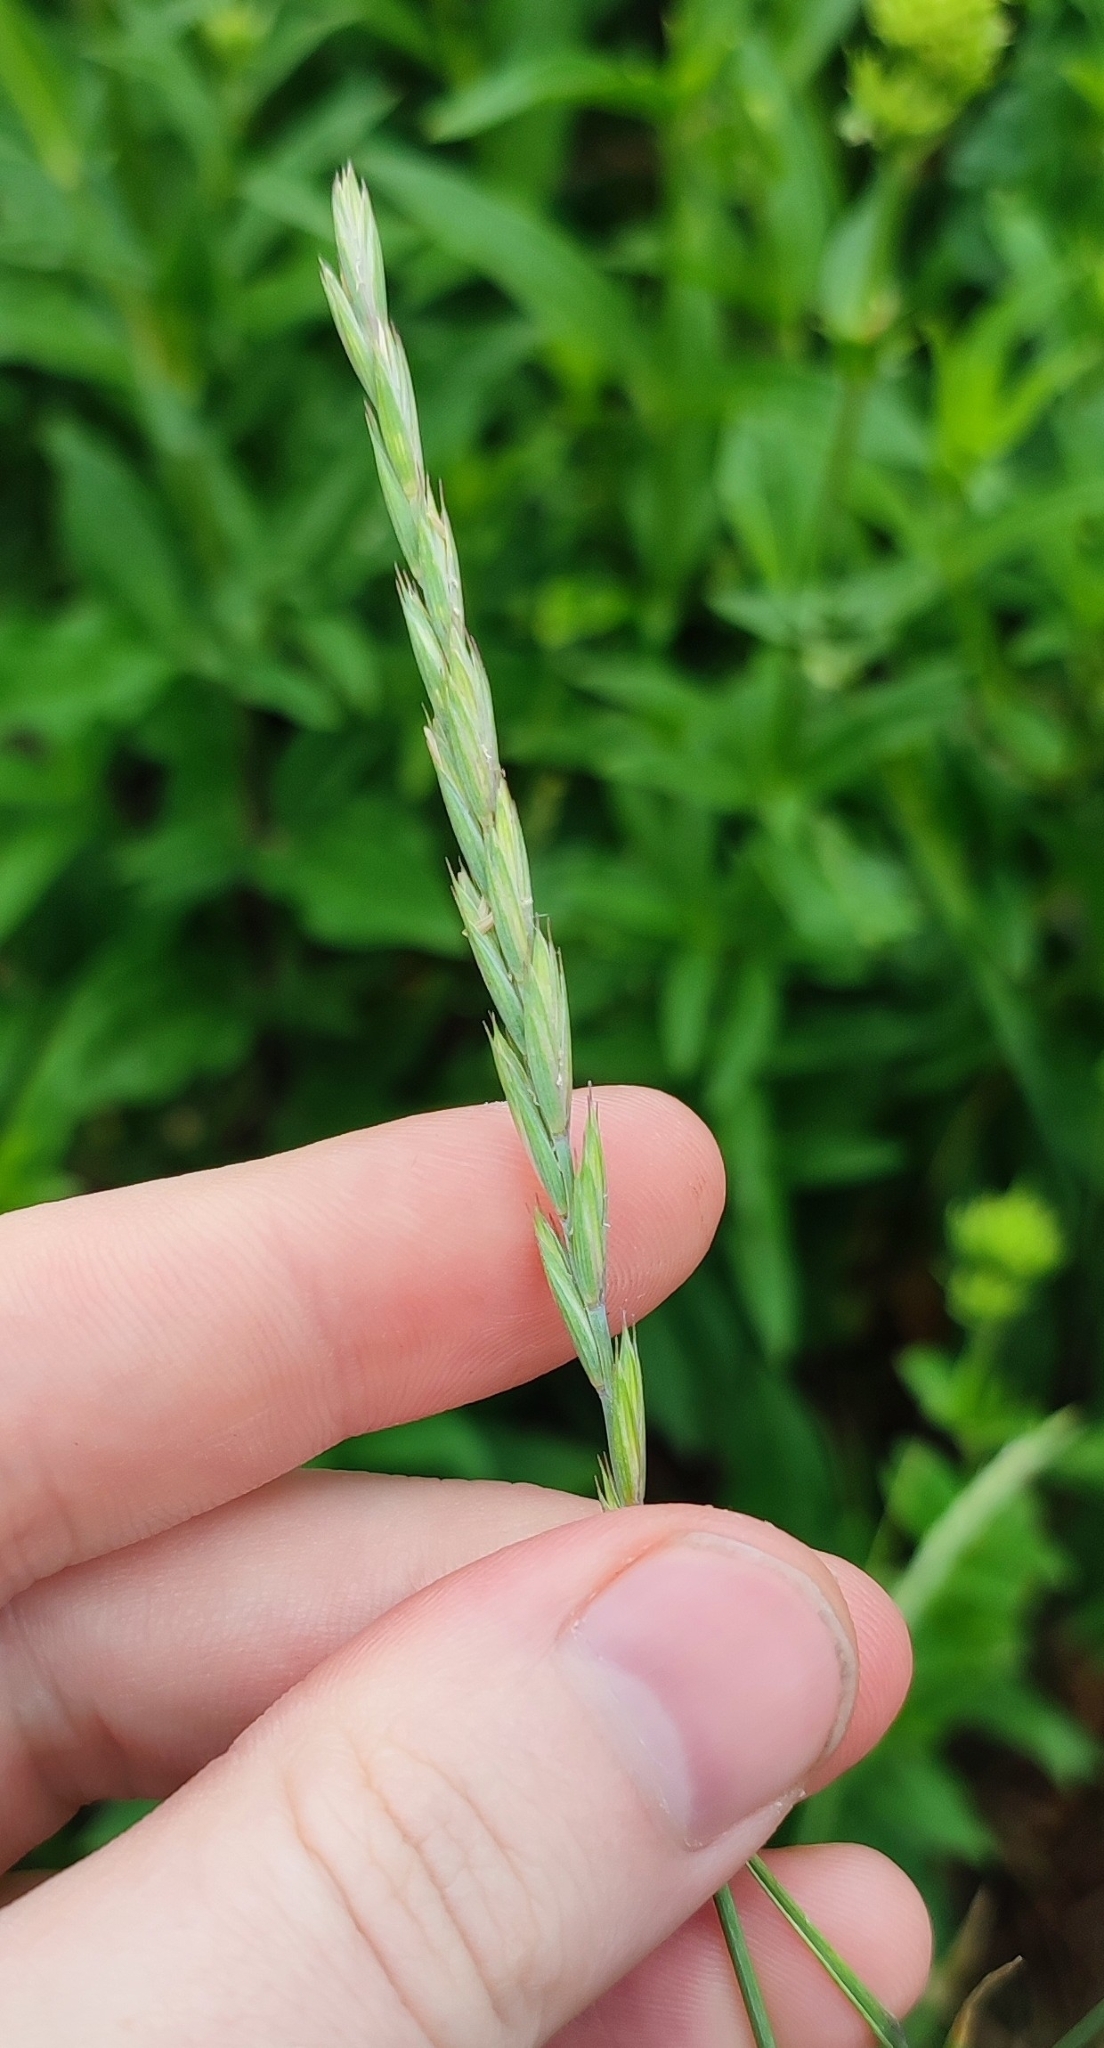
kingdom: Plantae
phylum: Tracheophyta
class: Liliopsida
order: Poales
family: Poaceae
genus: Elymus
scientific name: Elymus repens
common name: Quackgrass
